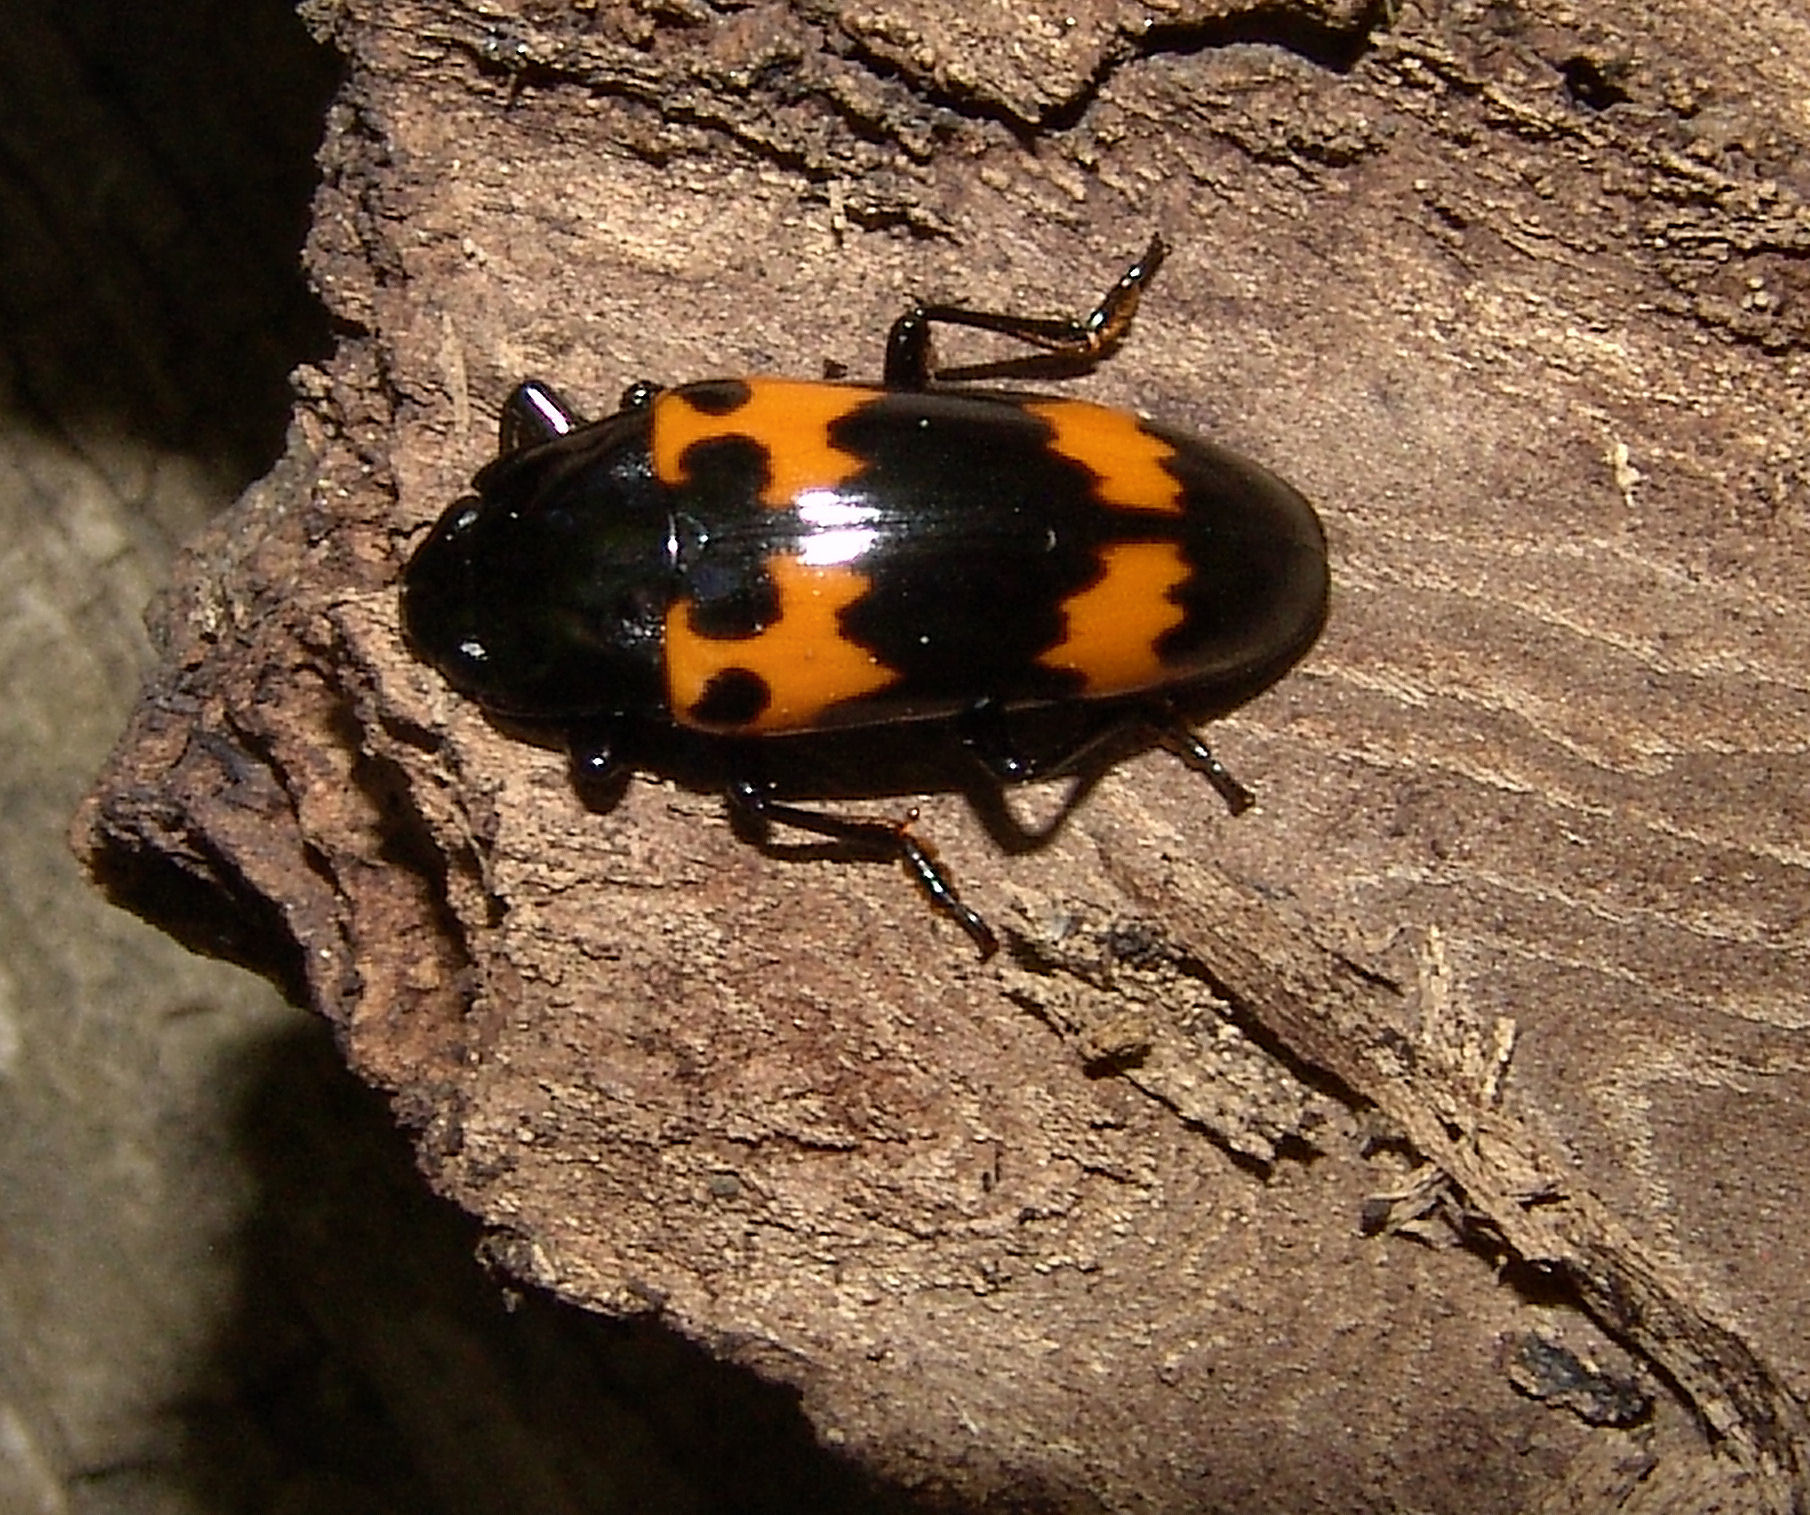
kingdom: Animalia
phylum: Arthropoda
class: Insecta
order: Coleoptera
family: Erotylidae
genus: Megalodacne
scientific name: Megalodacne heros
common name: Pleasing fungus beetle
